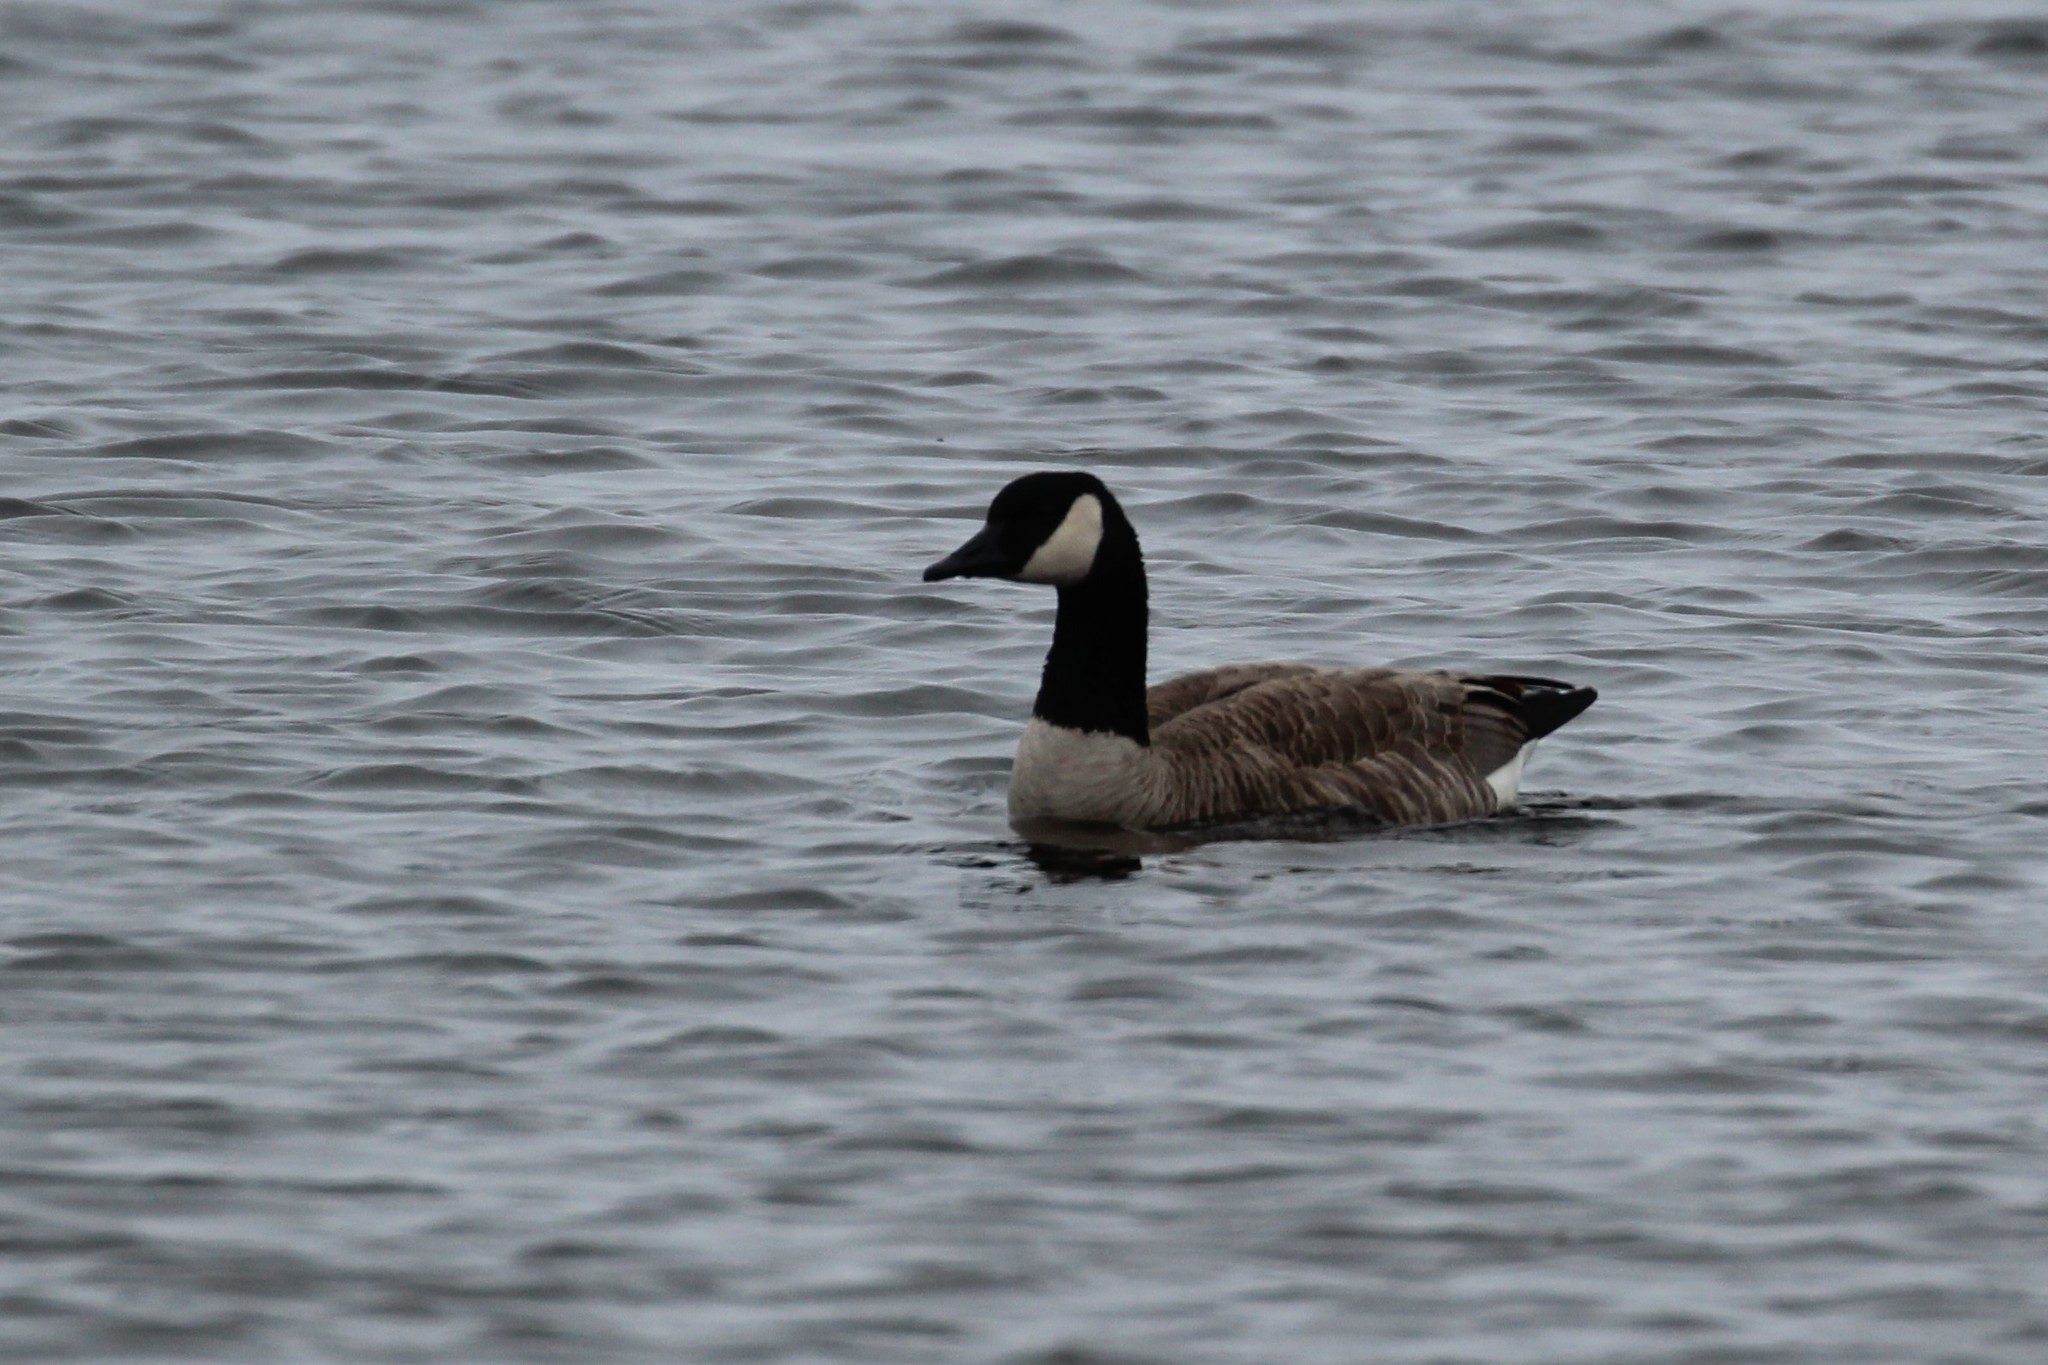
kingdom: Animalia
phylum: Chordata
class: Aves
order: Anseriformes
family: Anatidae
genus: Branta
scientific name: Branta canadensis
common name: Canada goose
